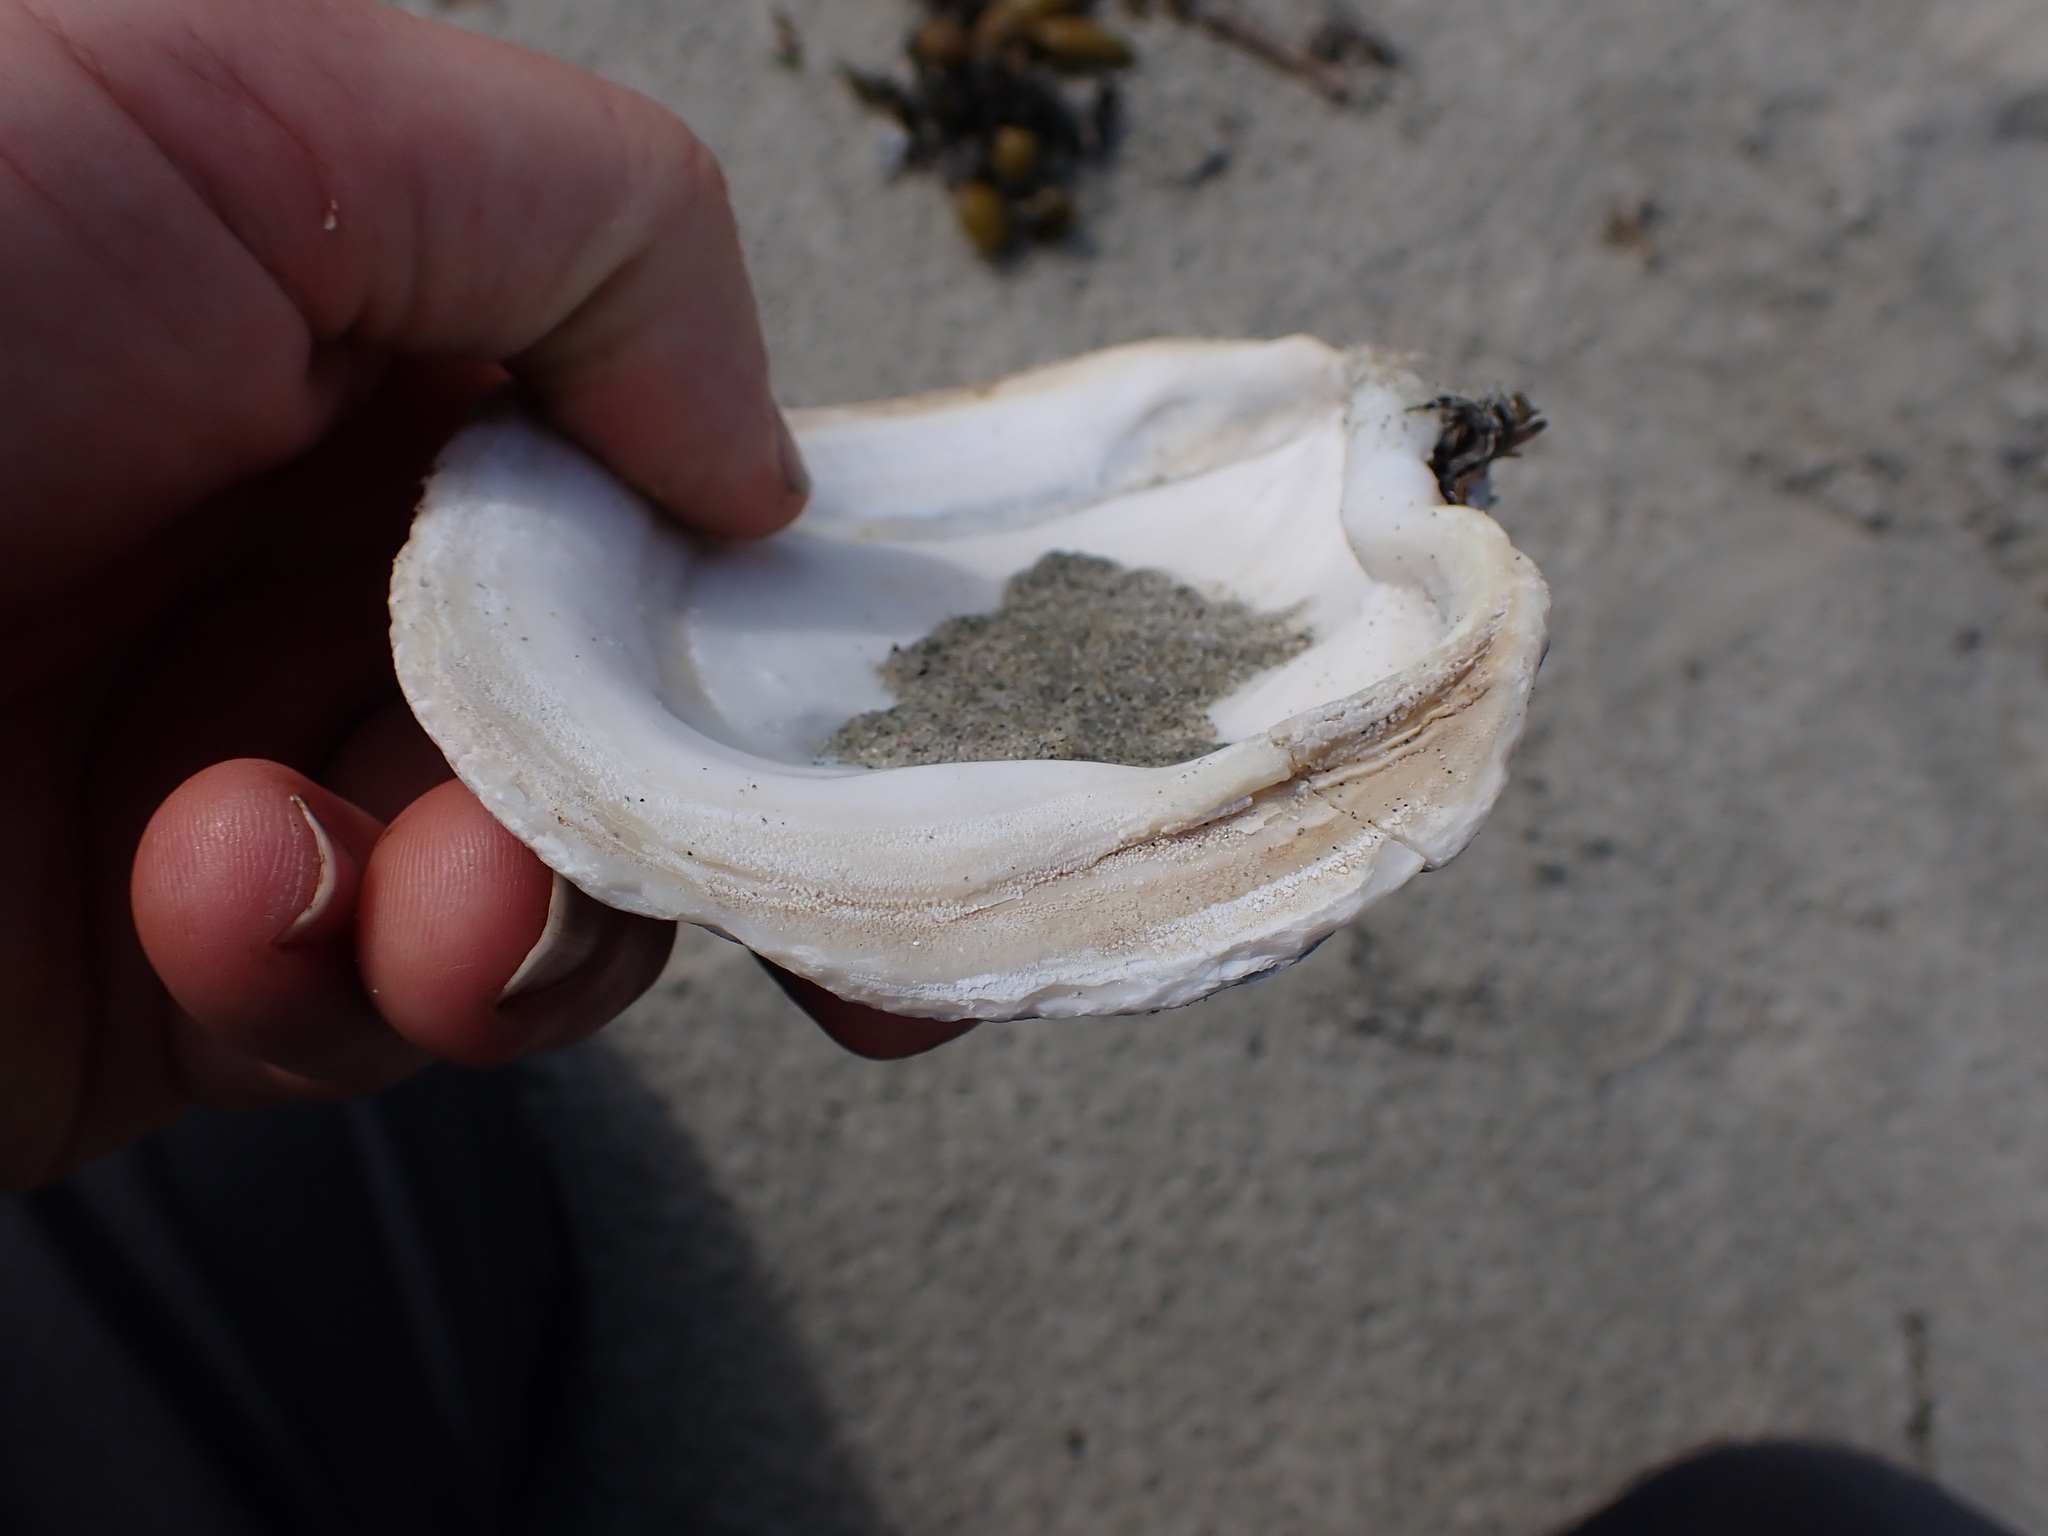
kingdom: Animalia
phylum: Mollusca
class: Bivalvia
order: Adapedonta
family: Hiatellidae
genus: Panopea
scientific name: Panopea generosa
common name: Geoduck
